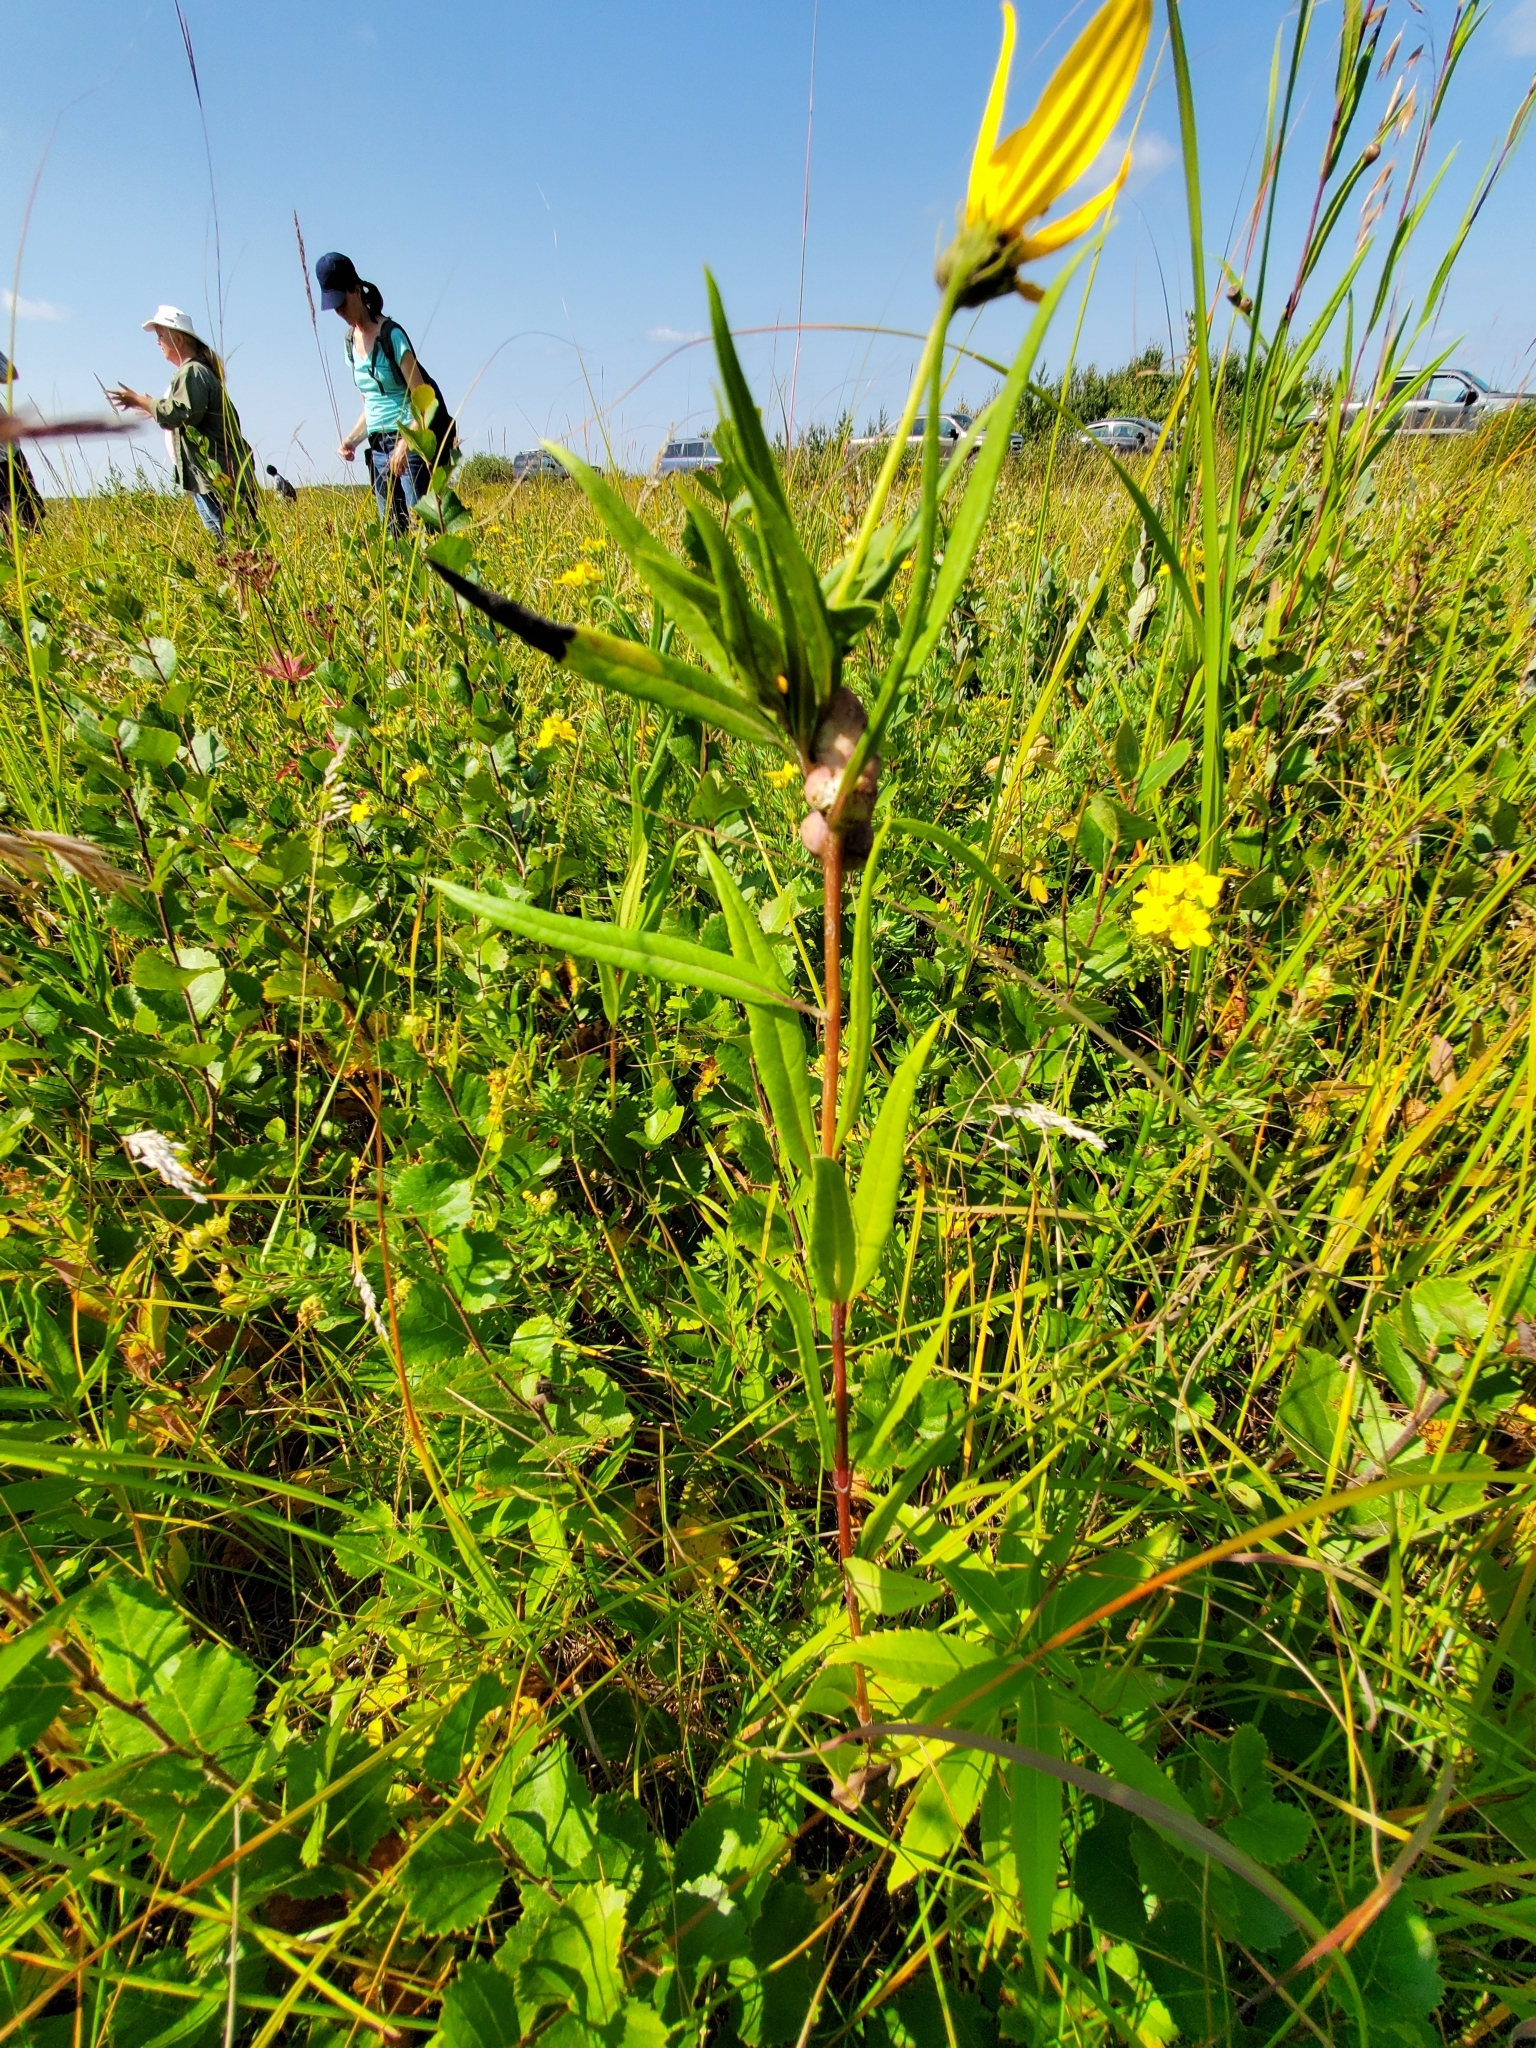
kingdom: Animalia
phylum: Arthropoda
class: Insecta
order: Diptera
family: Cecidomyiidae
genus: Asphondylia
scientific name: Asphondylia helianthiglobulus
